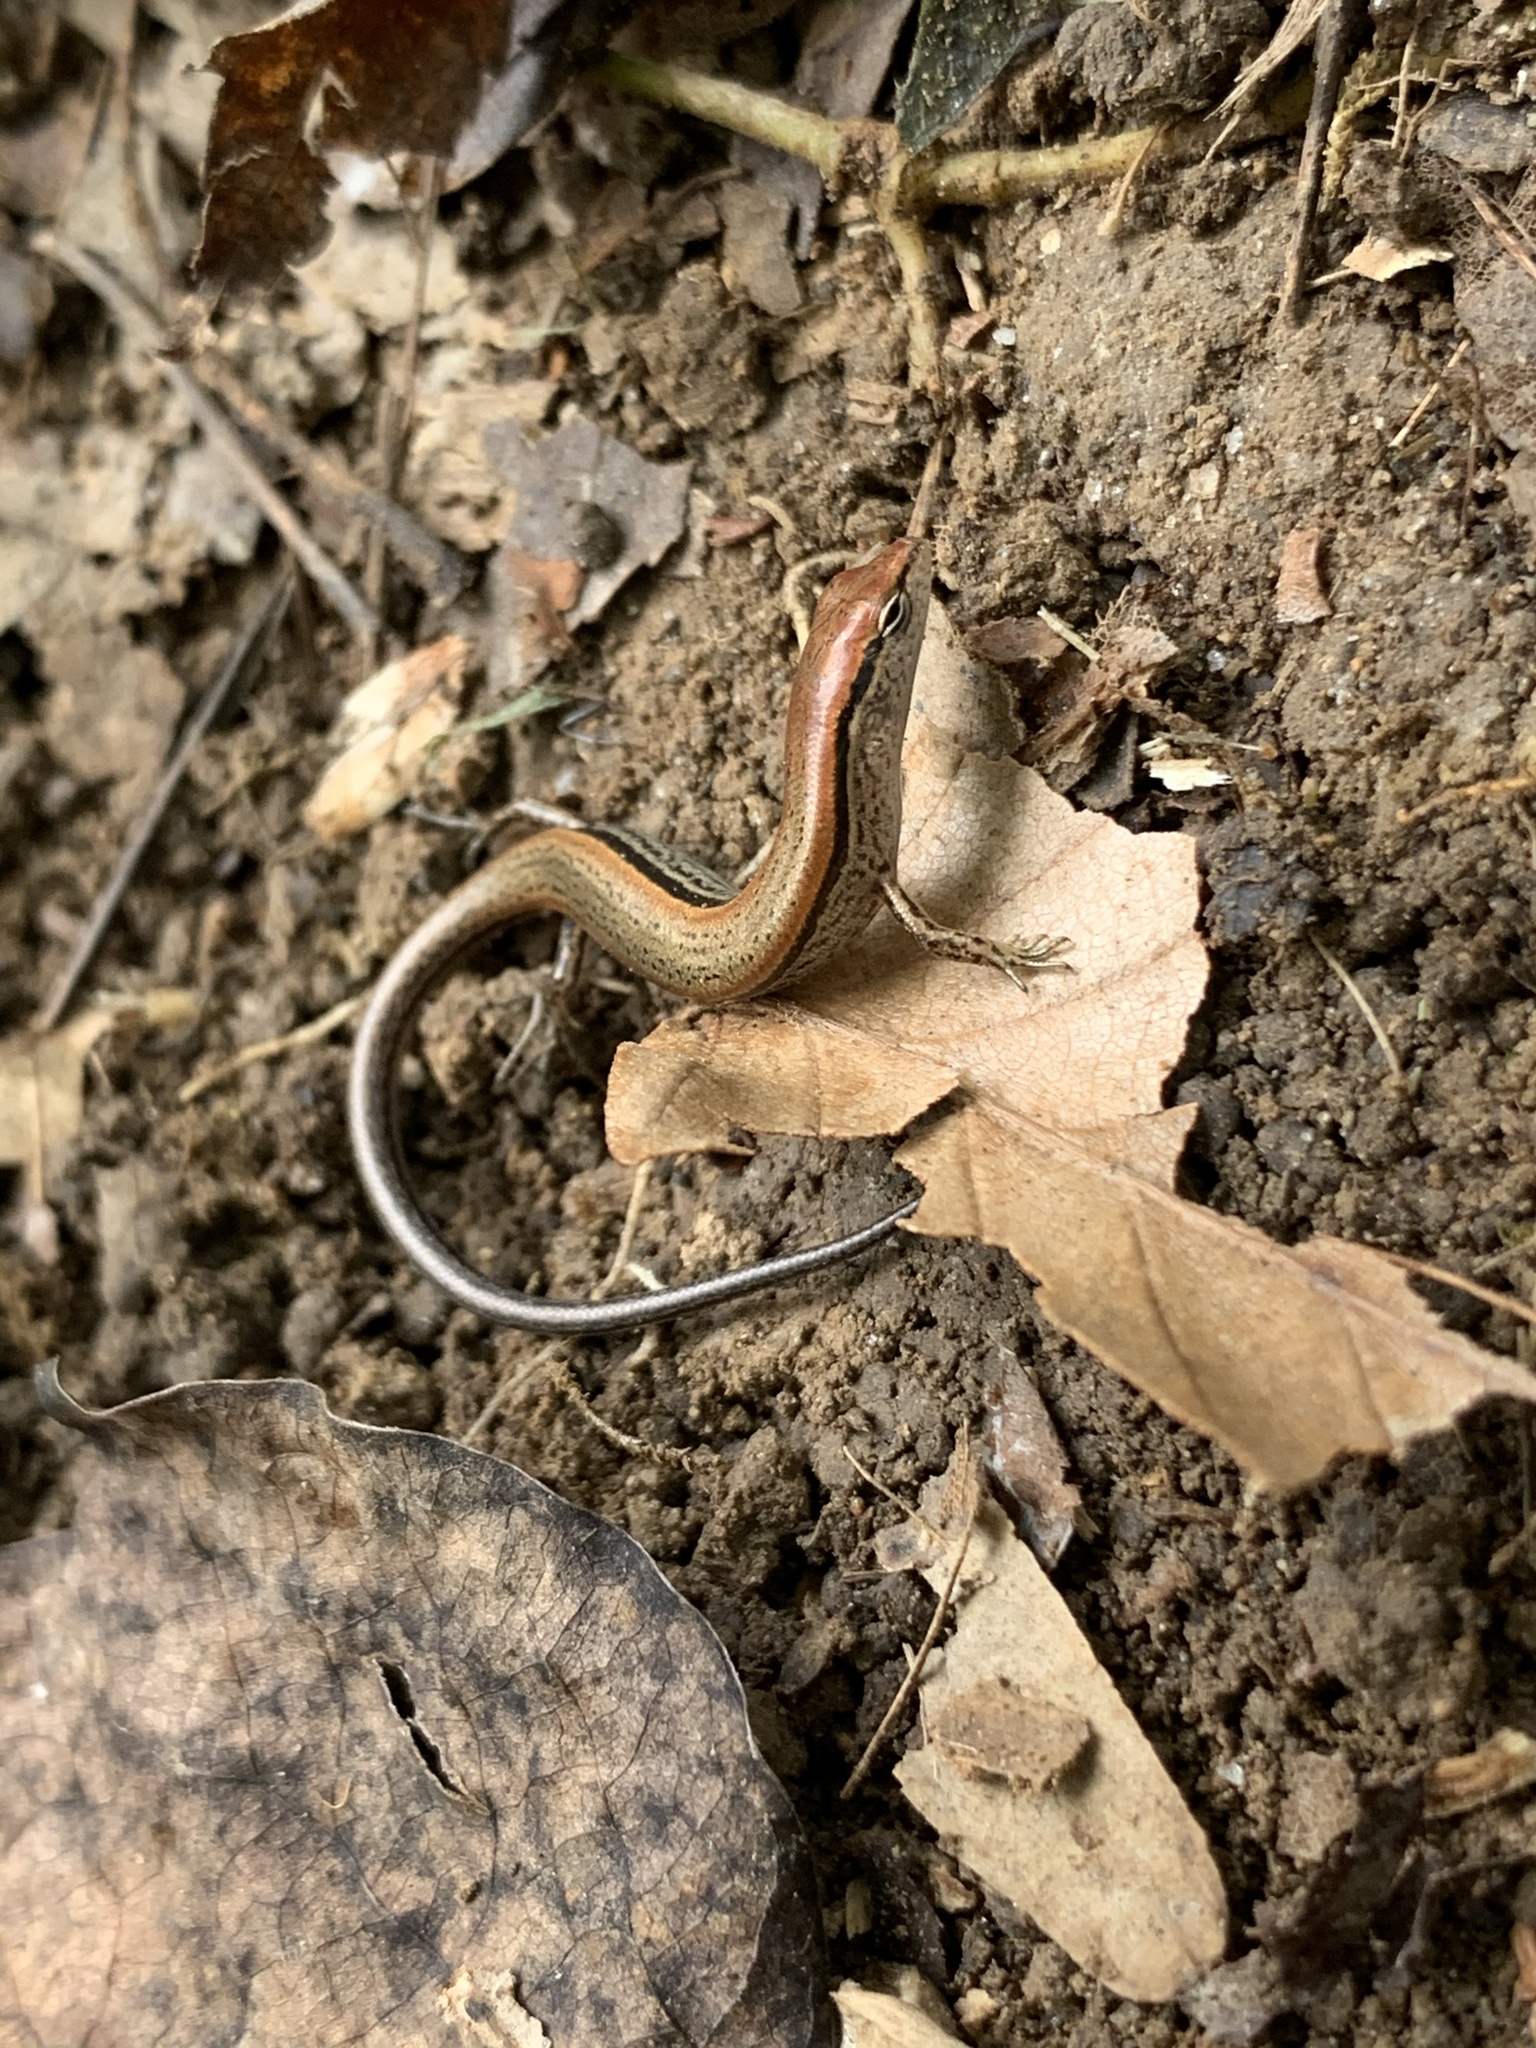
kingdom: Animalia
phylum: Chordata
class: Squamata
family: Scincidae
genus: Scincella
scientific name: Scincella lateralis
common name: Ground skink
